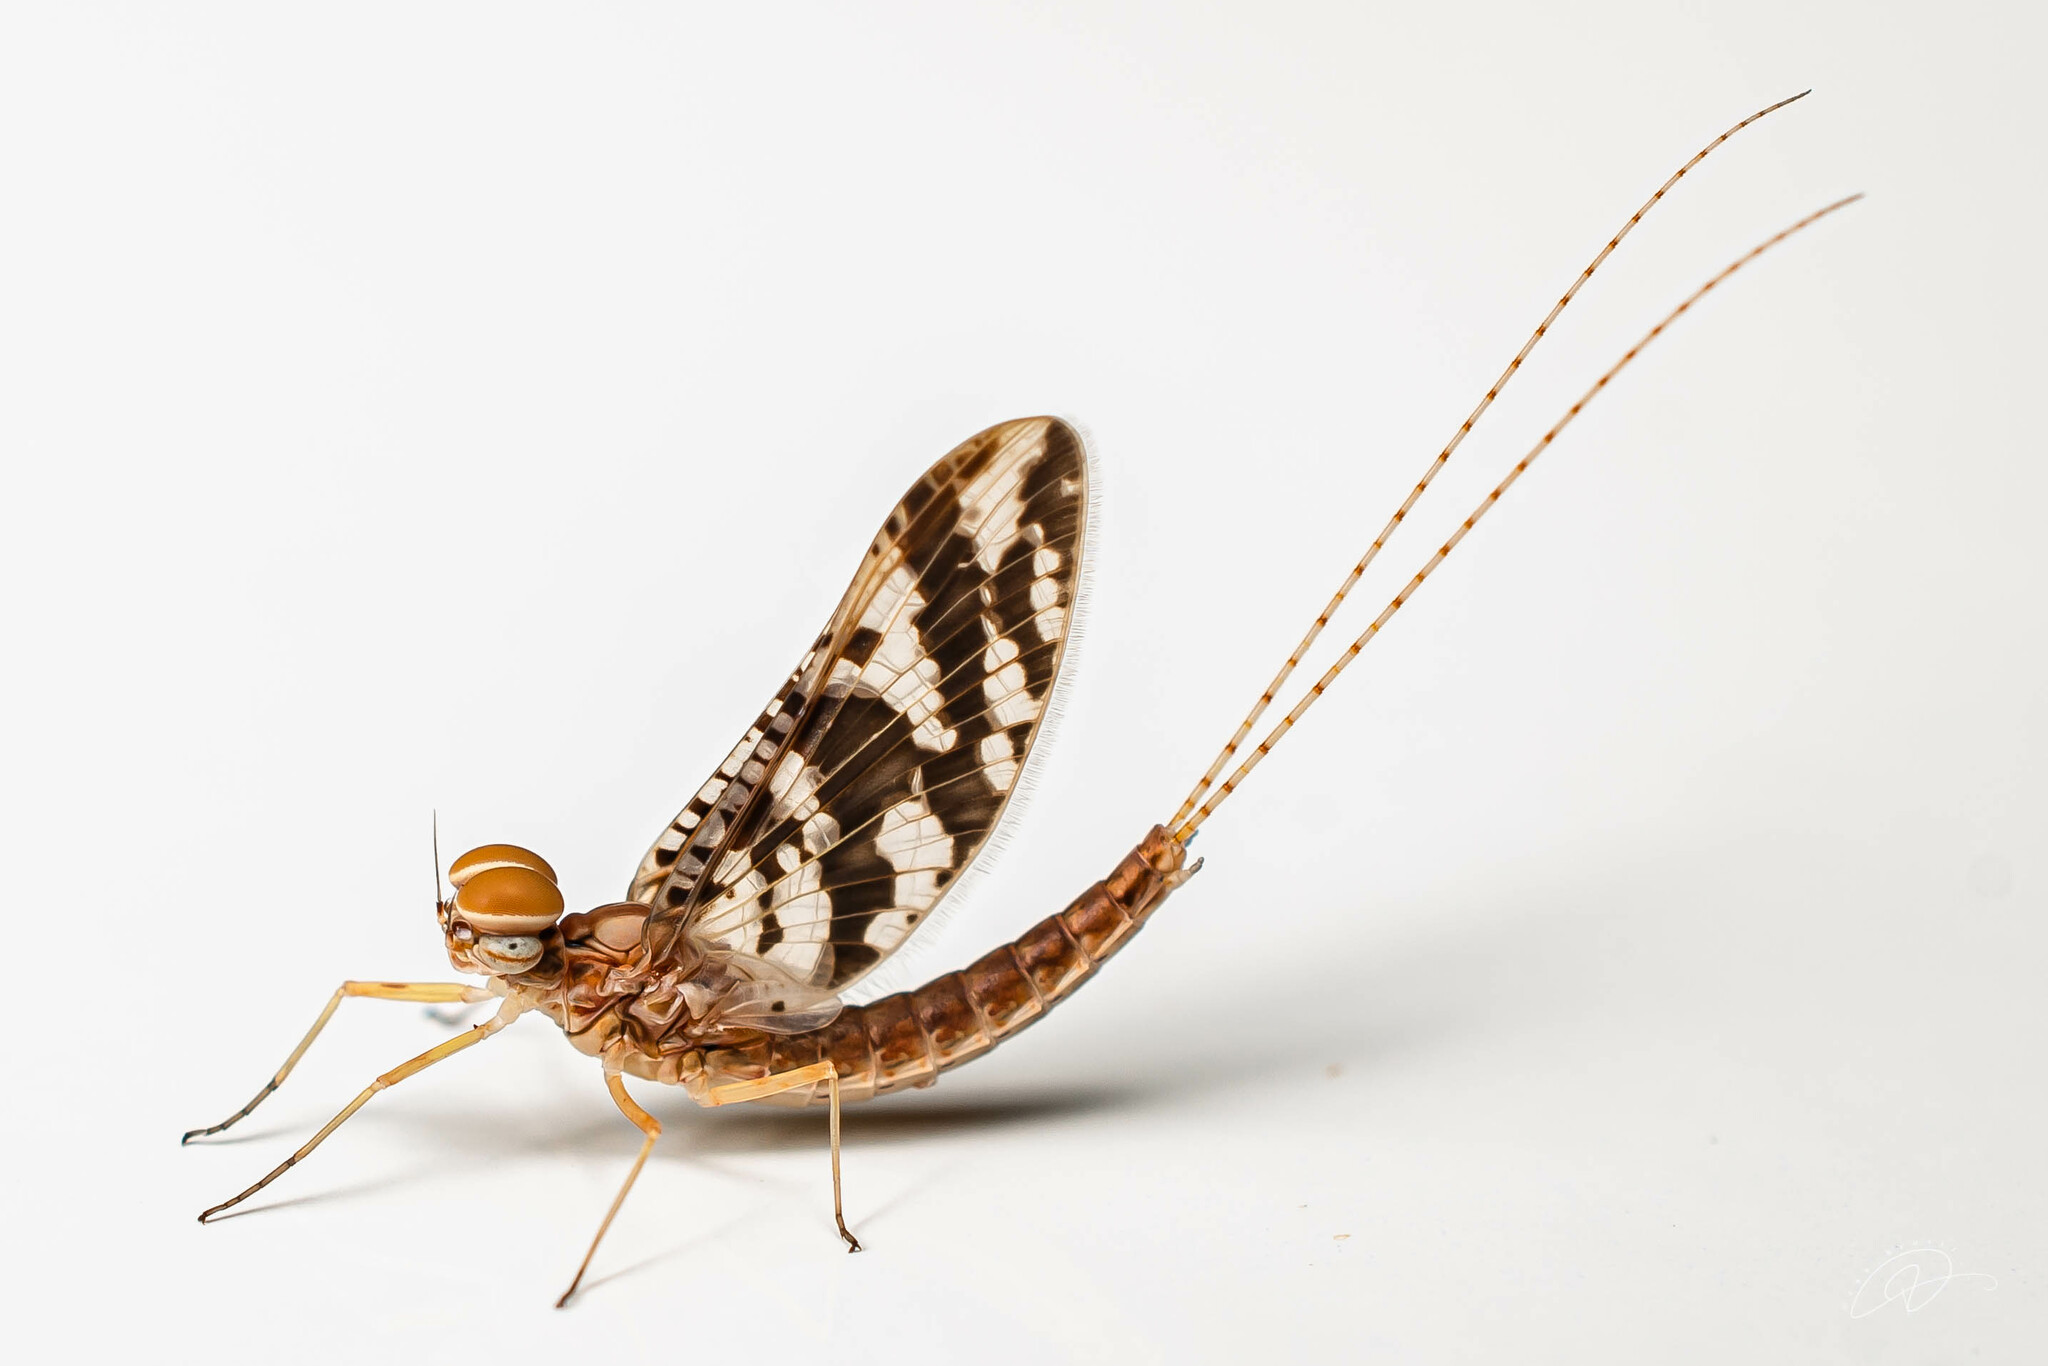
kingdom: Animalia
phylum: Arthropoda
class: Insecta
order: Ephemeroptera
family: Baetidae
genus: Callibaetis
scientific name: Callibaetis fasciatus
